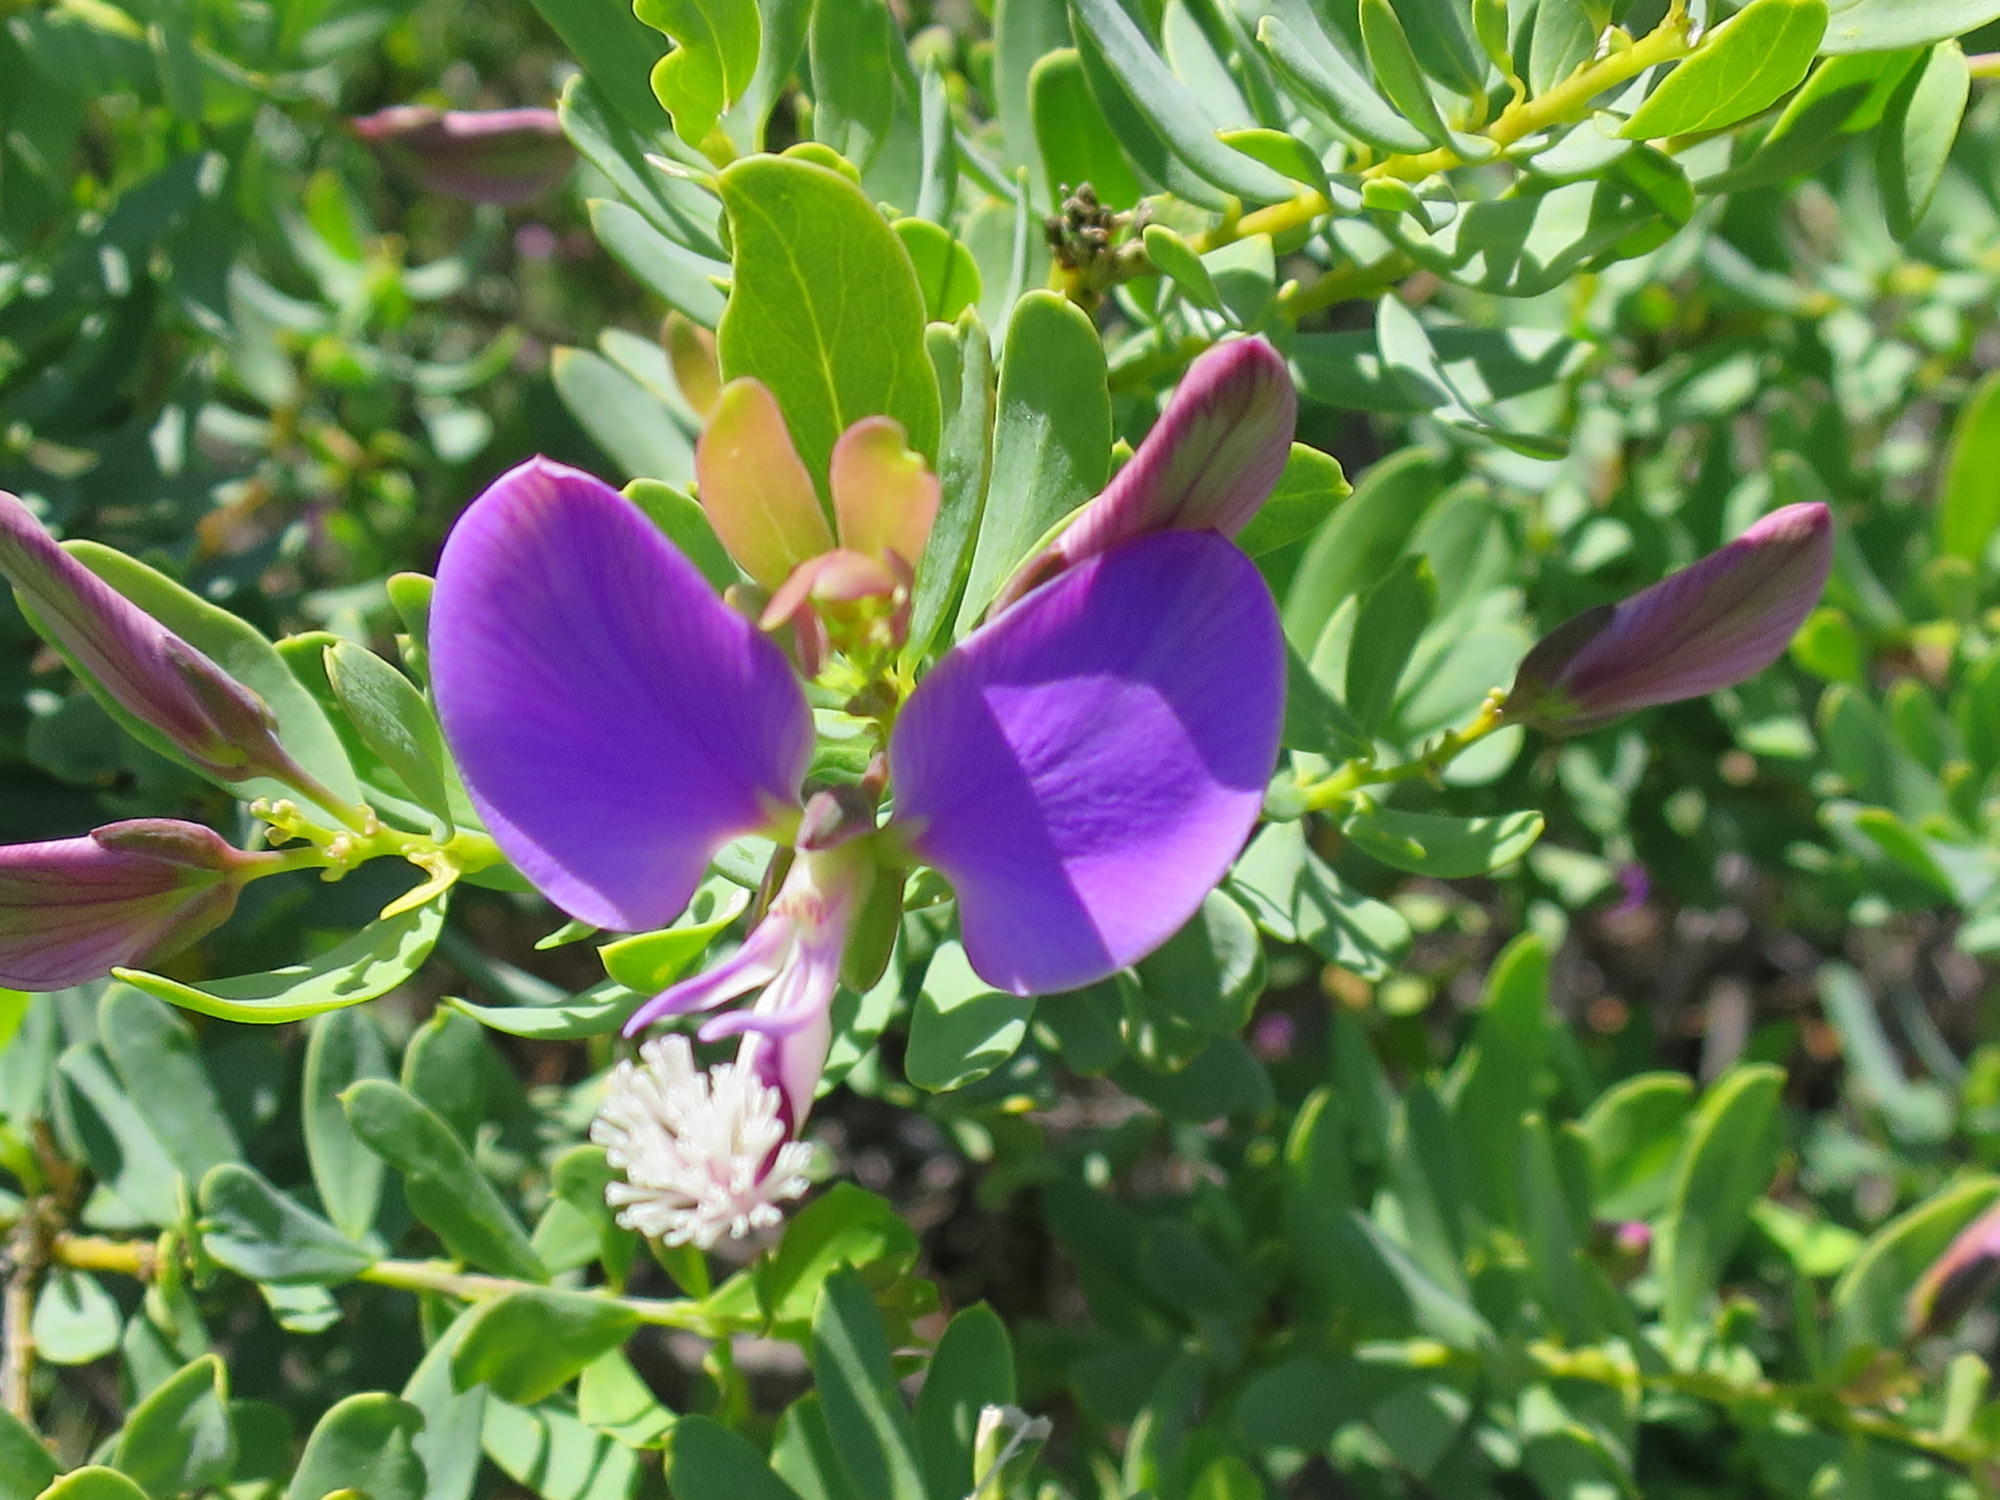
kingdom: Plantae
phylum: Tracheophyta
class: Magnoliopsida
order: Fabales
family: Polygalaceae
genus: Polygala
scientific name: Polygala myrtifolia
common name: Myrtle-leaf milkwort
